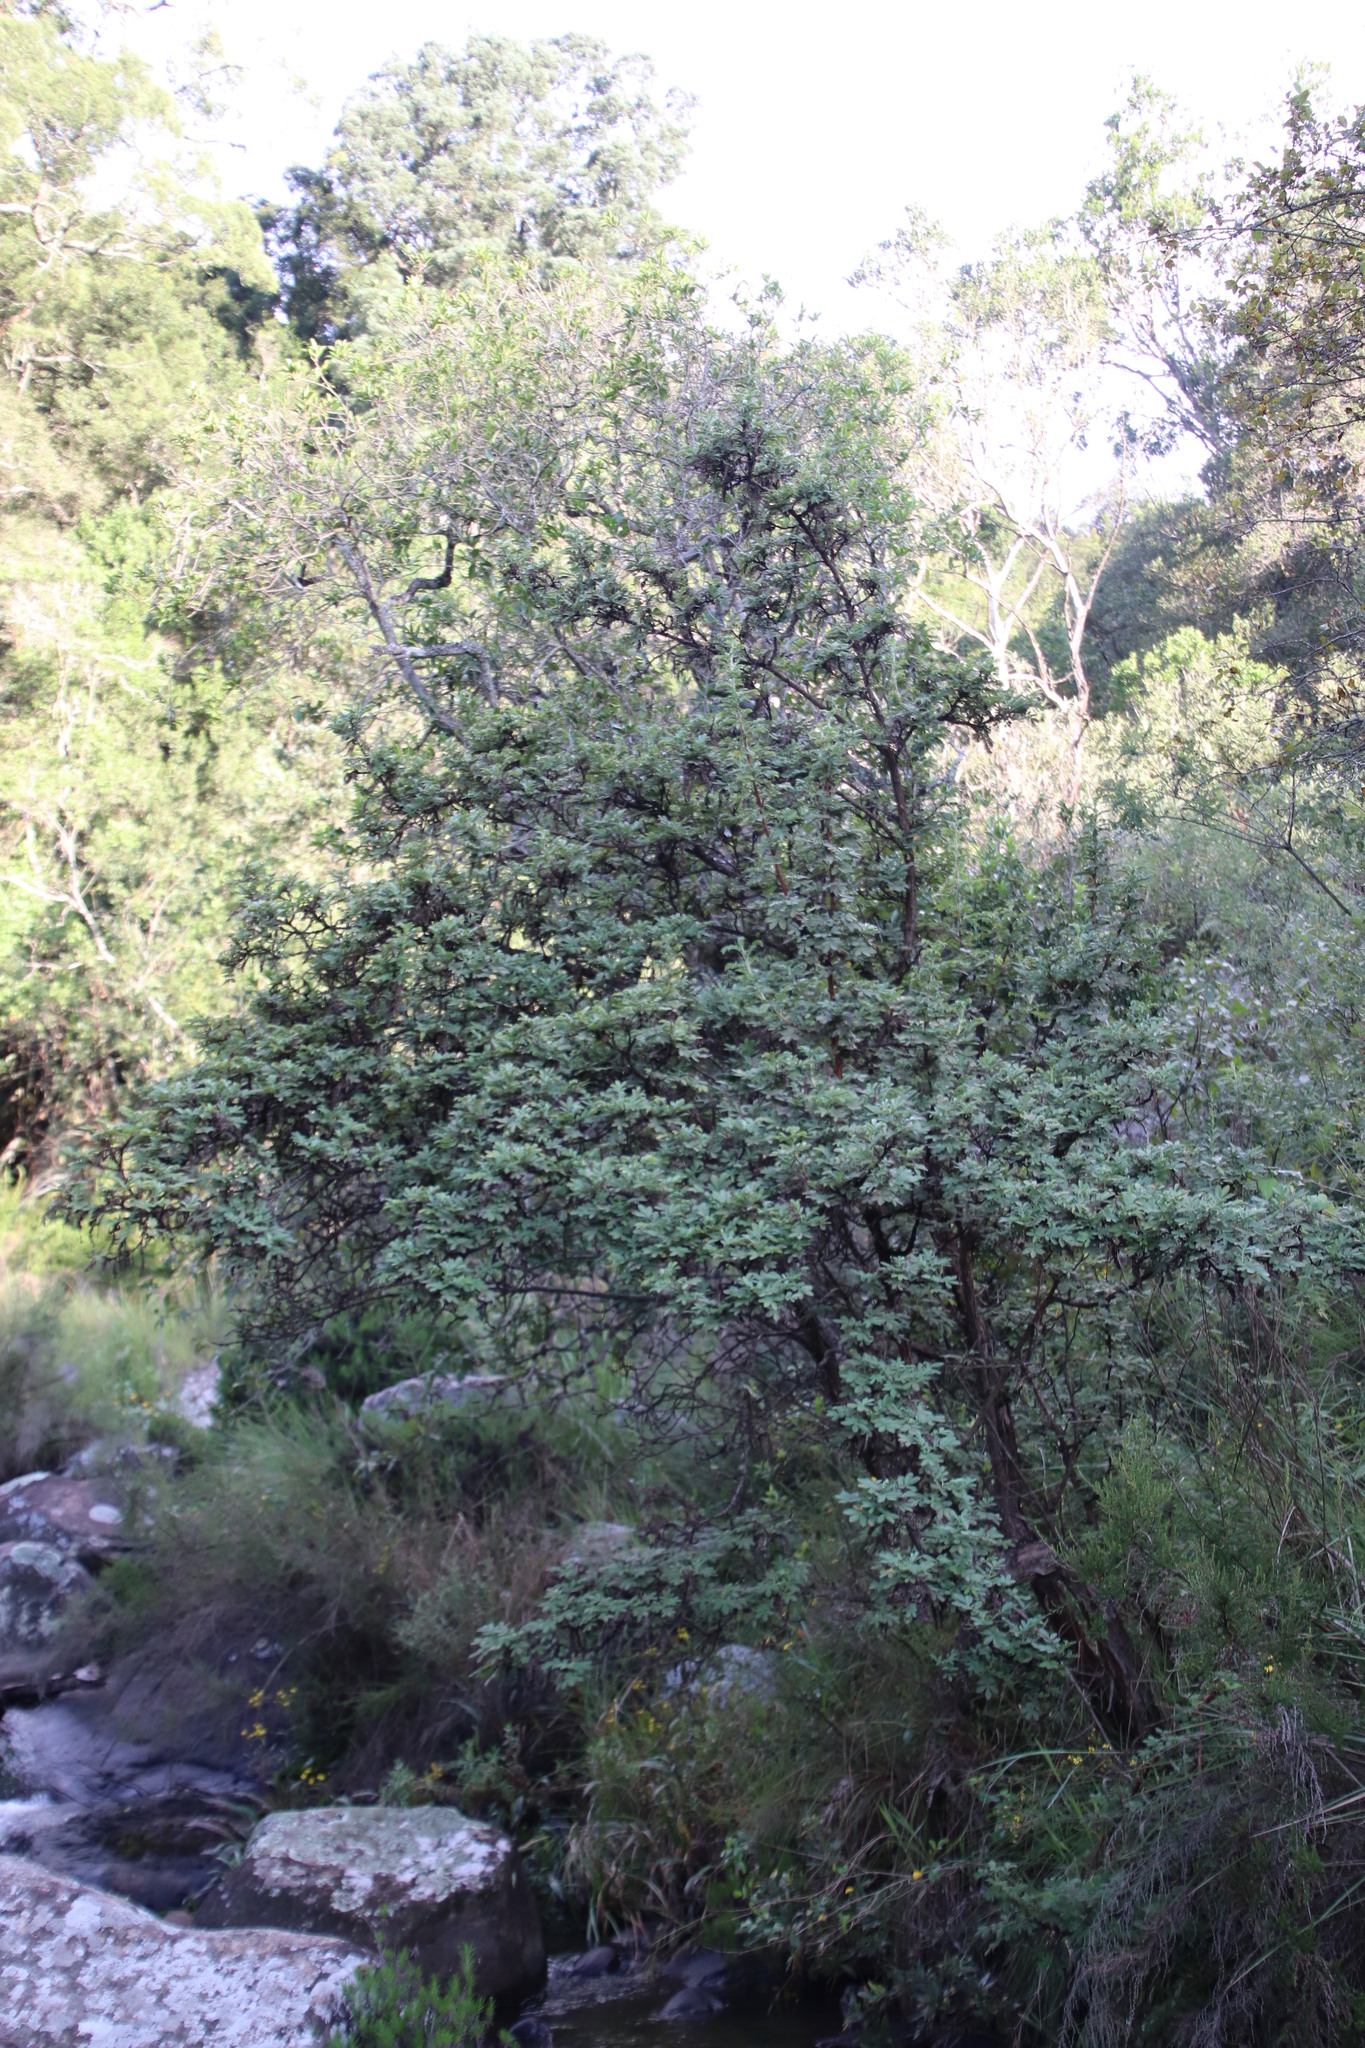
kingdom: Plantae
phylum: Tracheophyta
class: Magnoliopsida
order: Rosales
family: Rosaceae
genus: Leucosidea
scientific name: Leucosidea sericea
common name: Oldwood
